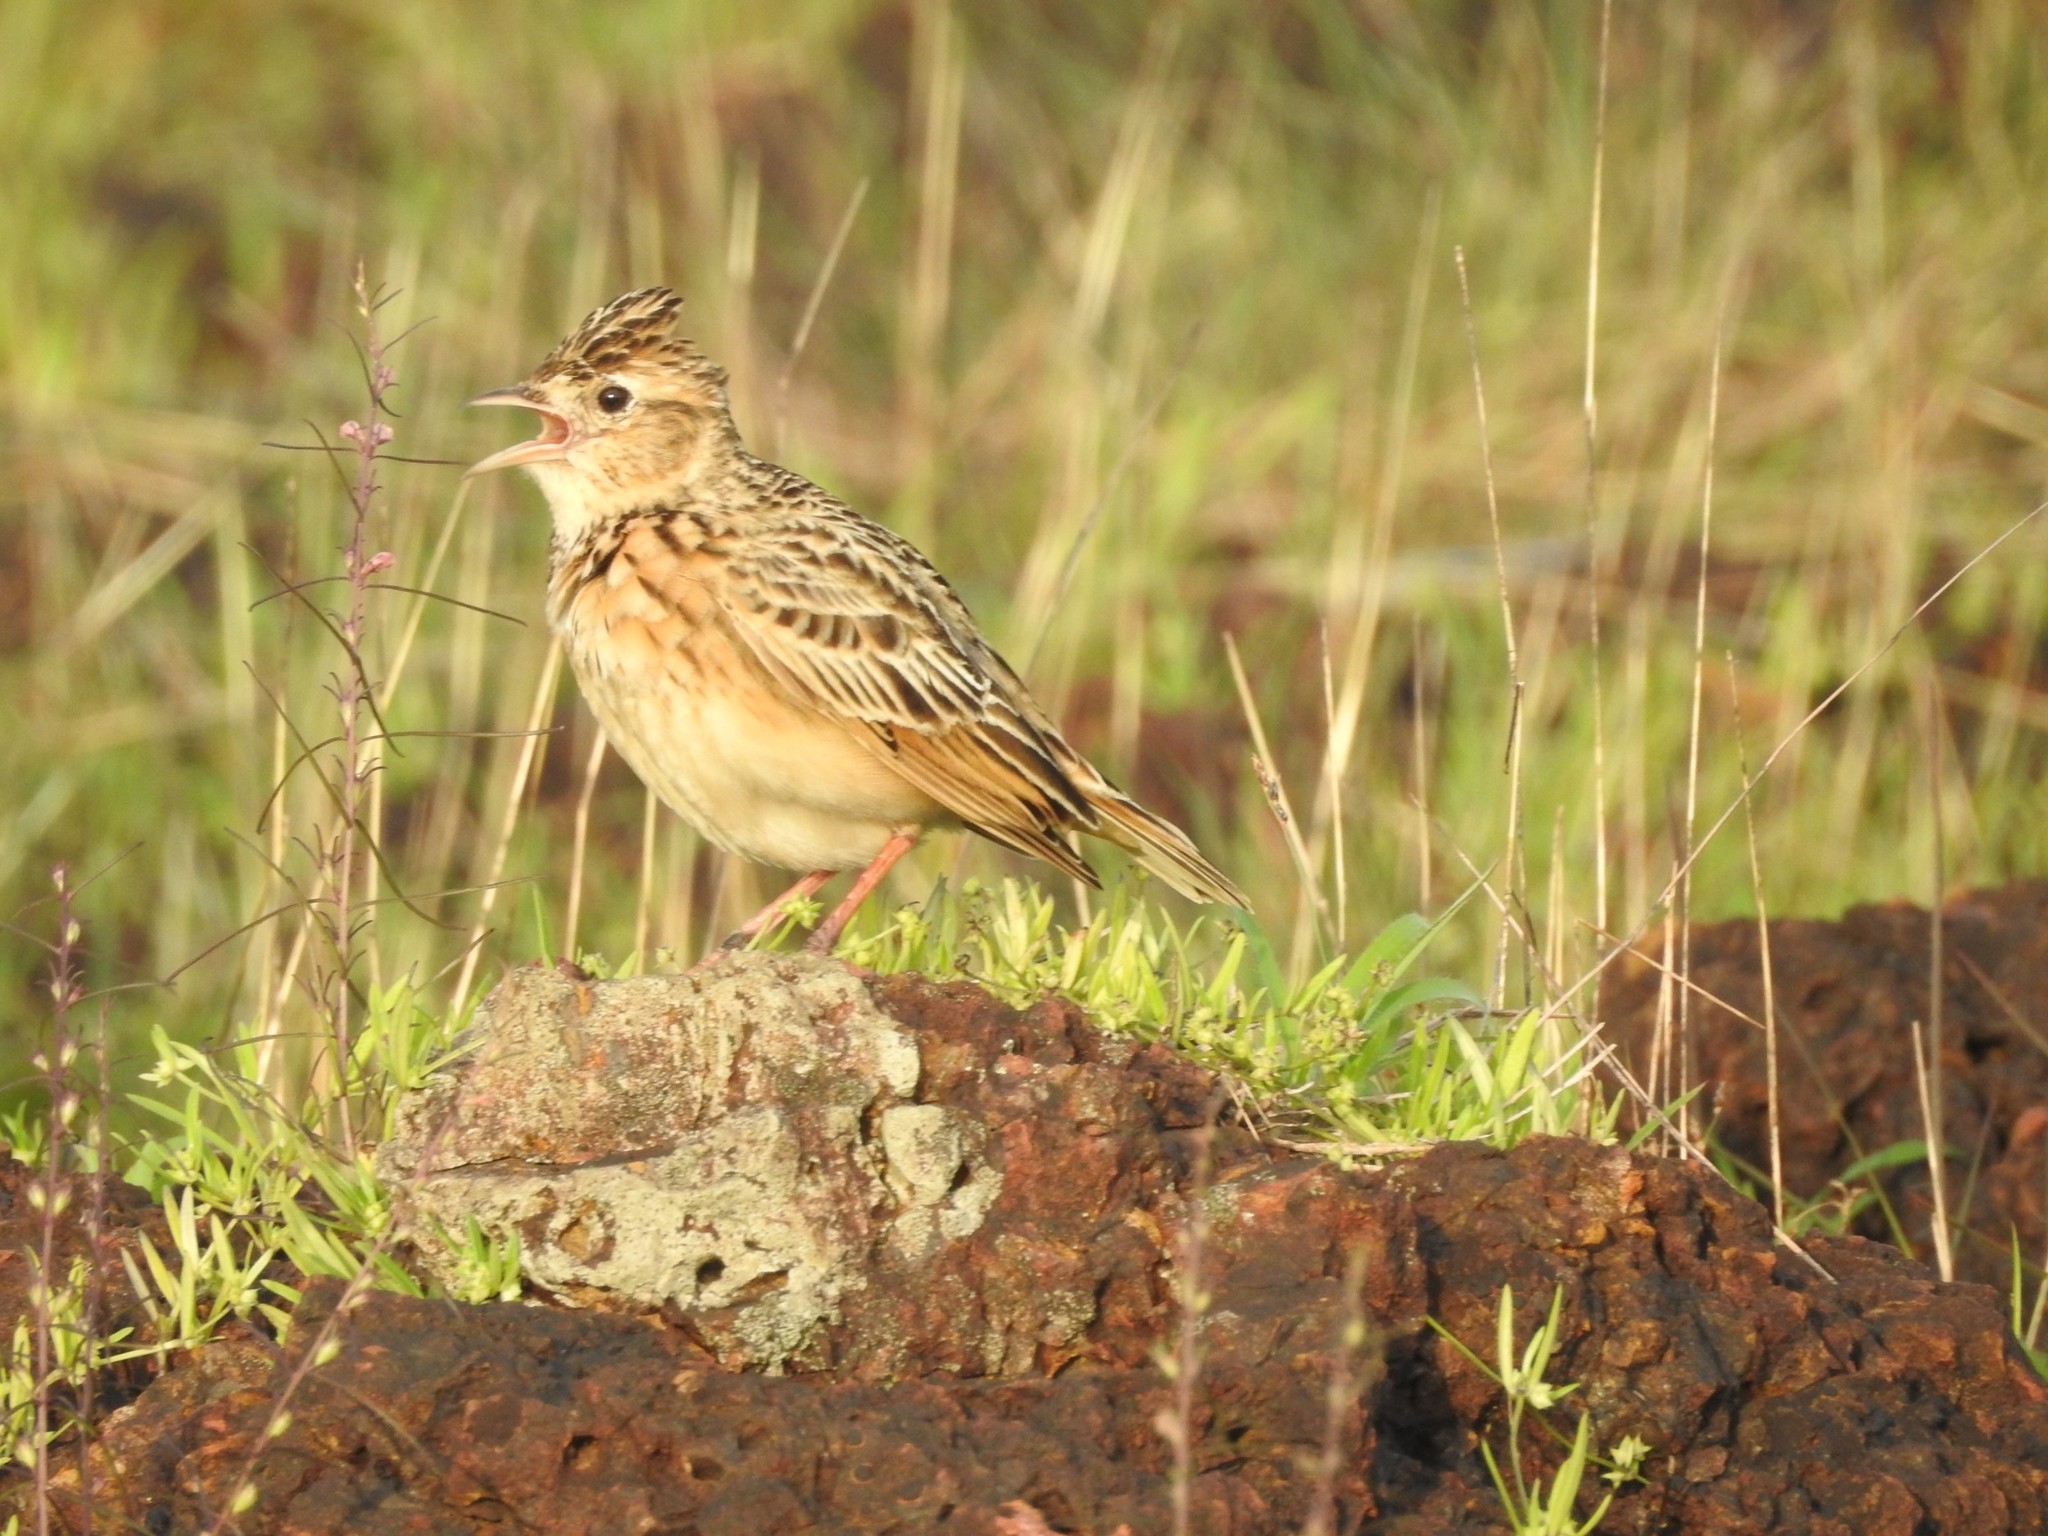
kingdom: Animalia
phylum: Chordata
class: Aves
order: Passeriformes
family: Alaudidae
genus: Alauda
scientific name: Alauda gulgula
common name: Oriental skylark
